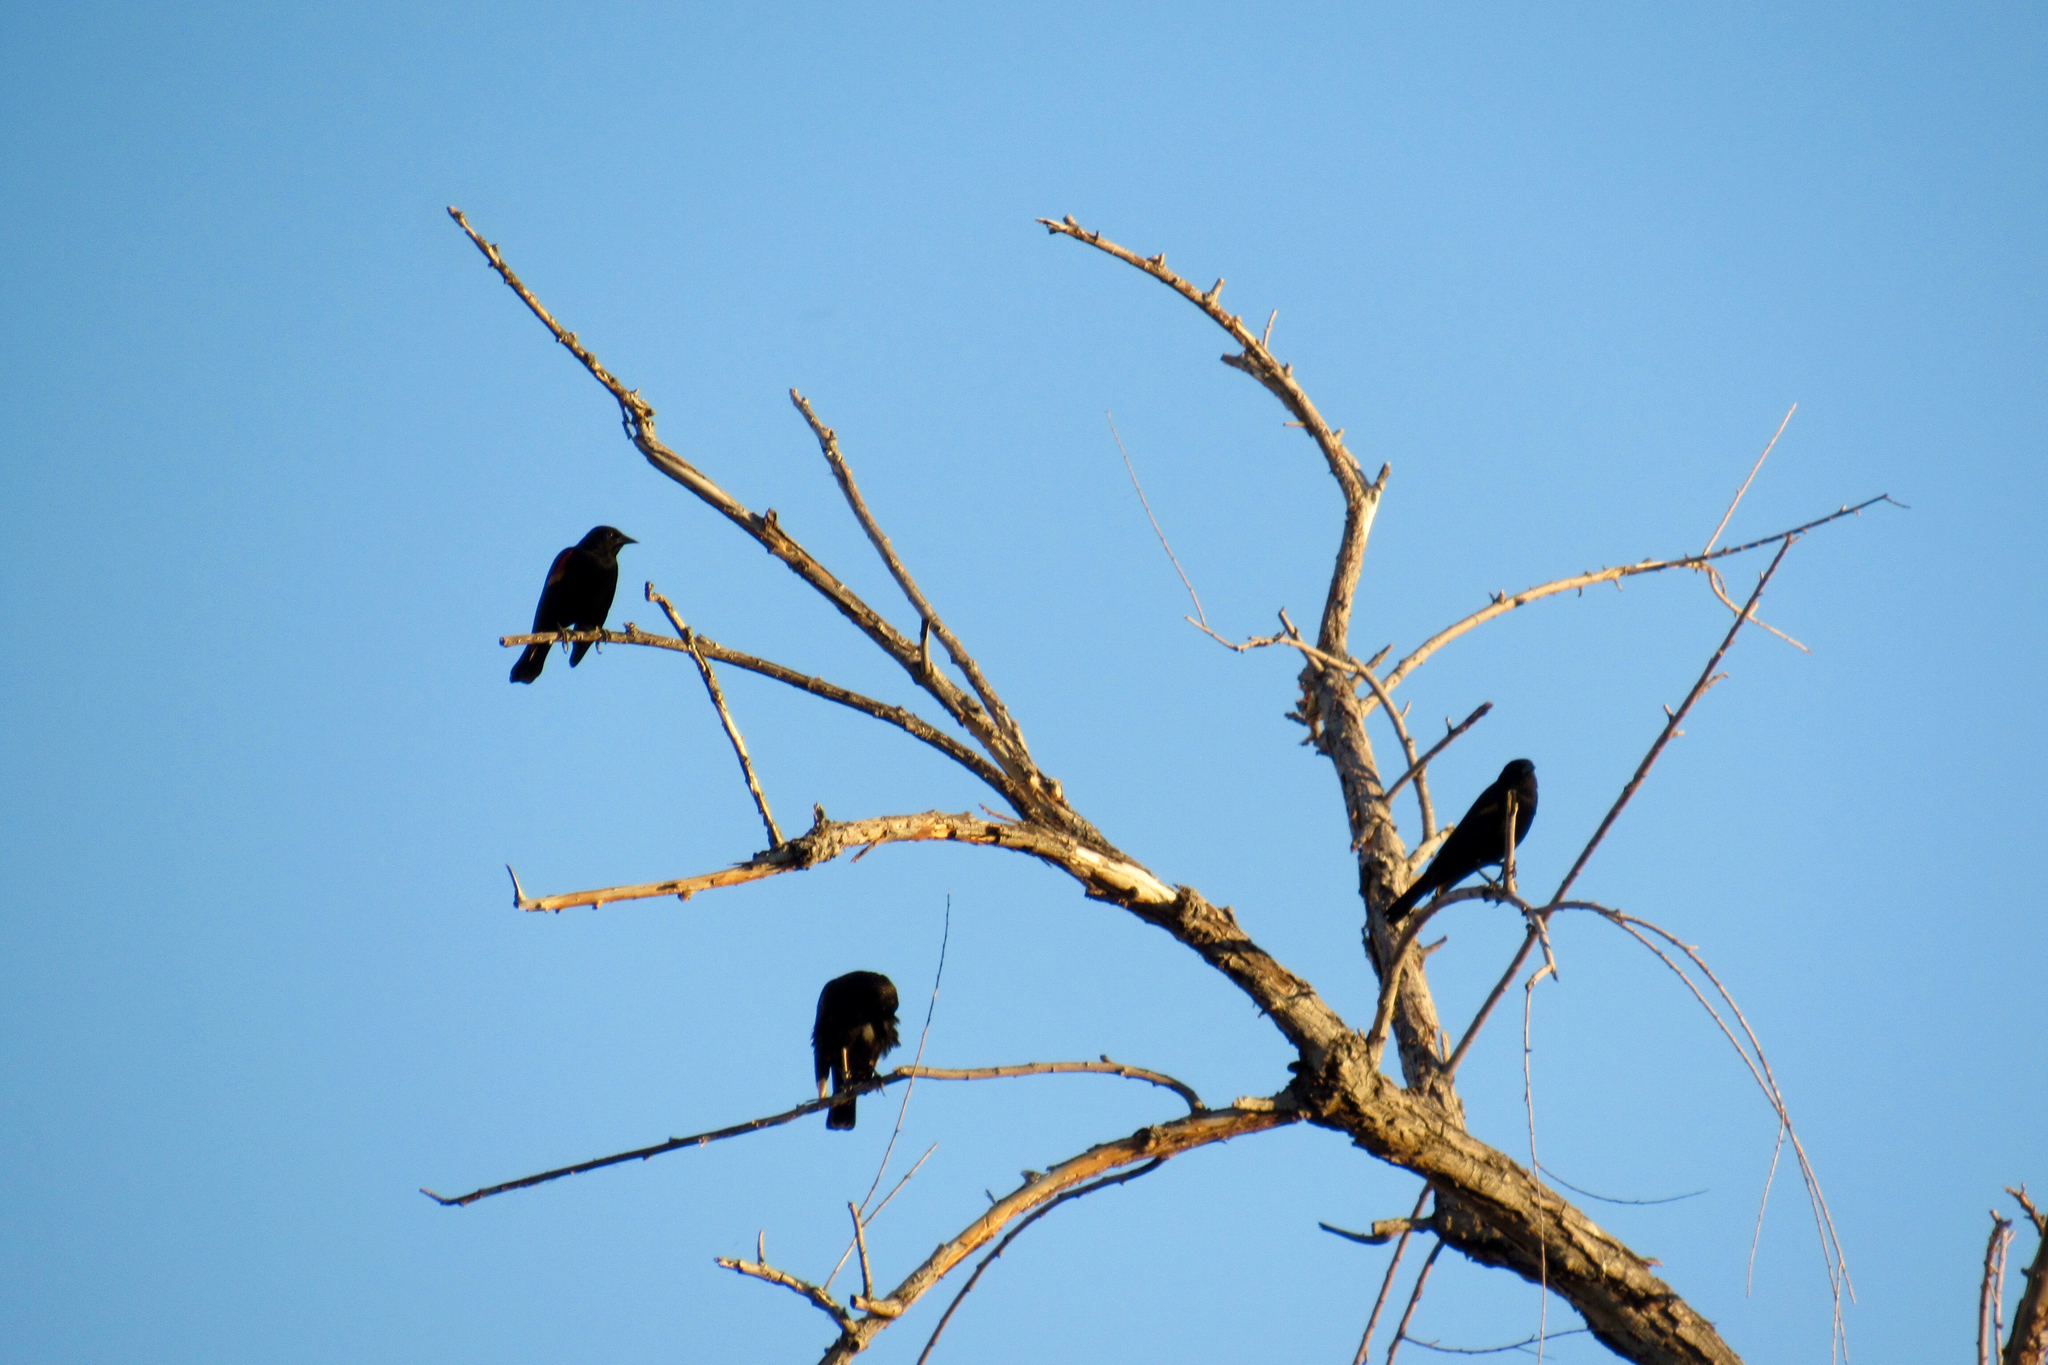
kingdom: Animalia
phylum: Chordata
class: Aves
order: Passeriformes
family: Icteridae
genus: Agelaius
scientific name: Agelaius phoeniceus
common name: Red-winged blackbird
